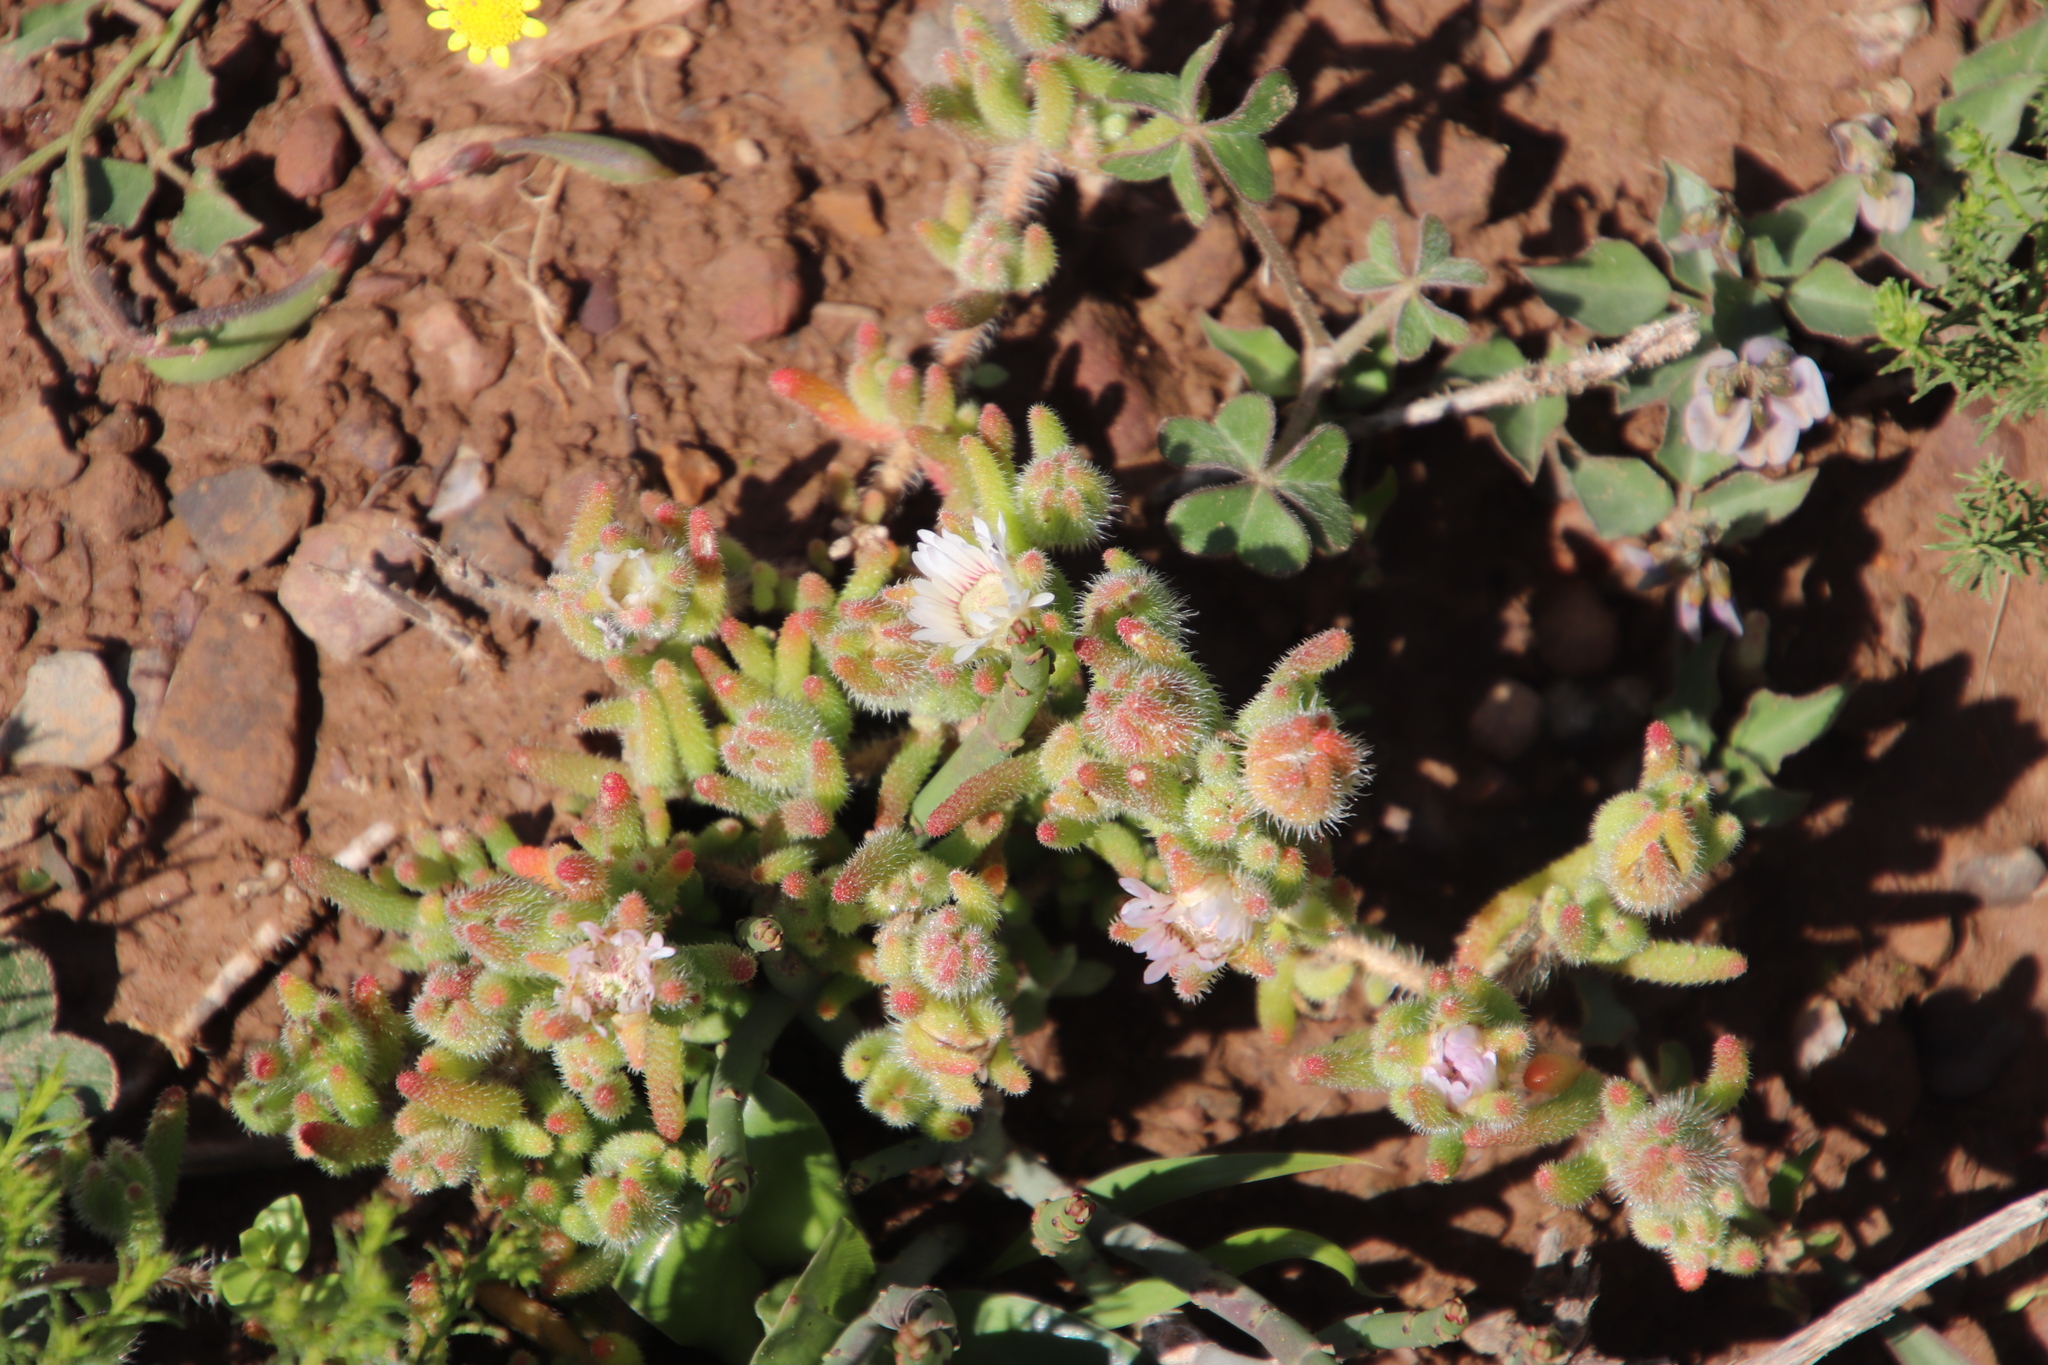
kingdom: Plantae
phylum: Tracheophyta
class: Magnoliopsida
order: Caryophyllales
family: Aizoaceae
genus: Drosanthemum
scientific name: Drosanthemum hispifolium
